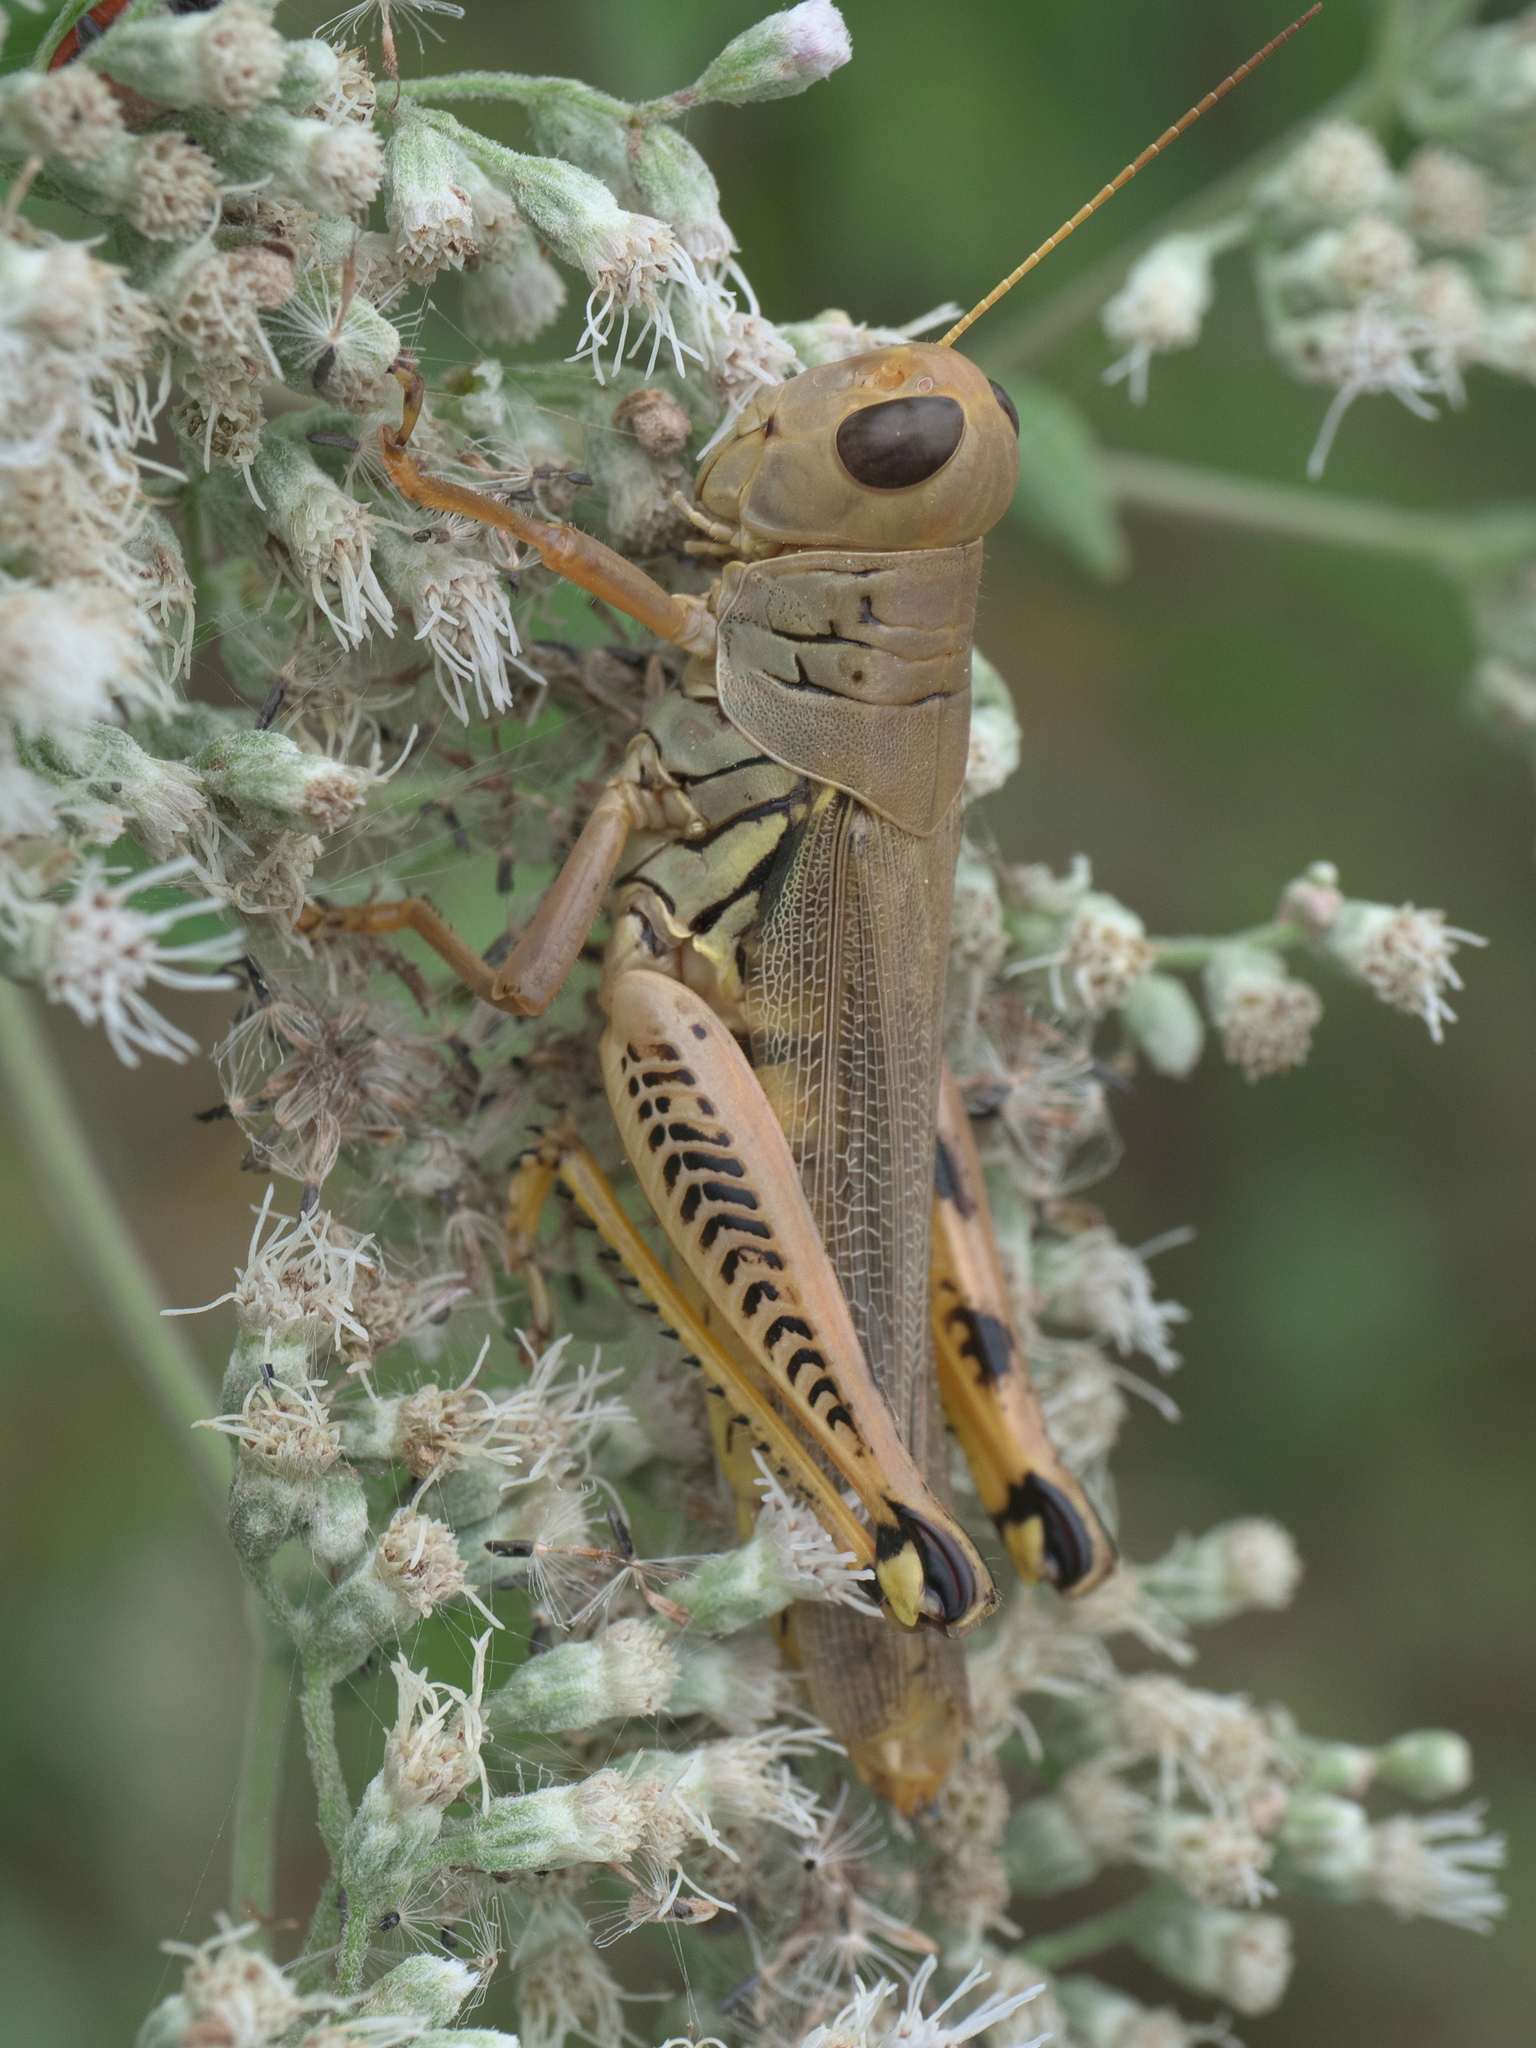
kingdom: Animalia
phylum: Arthropoda
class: Insecta
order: Orthoptera
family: Acrididae
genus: Melanoplus
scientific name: Melanoplus differentialis
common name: Differential grasshopper
